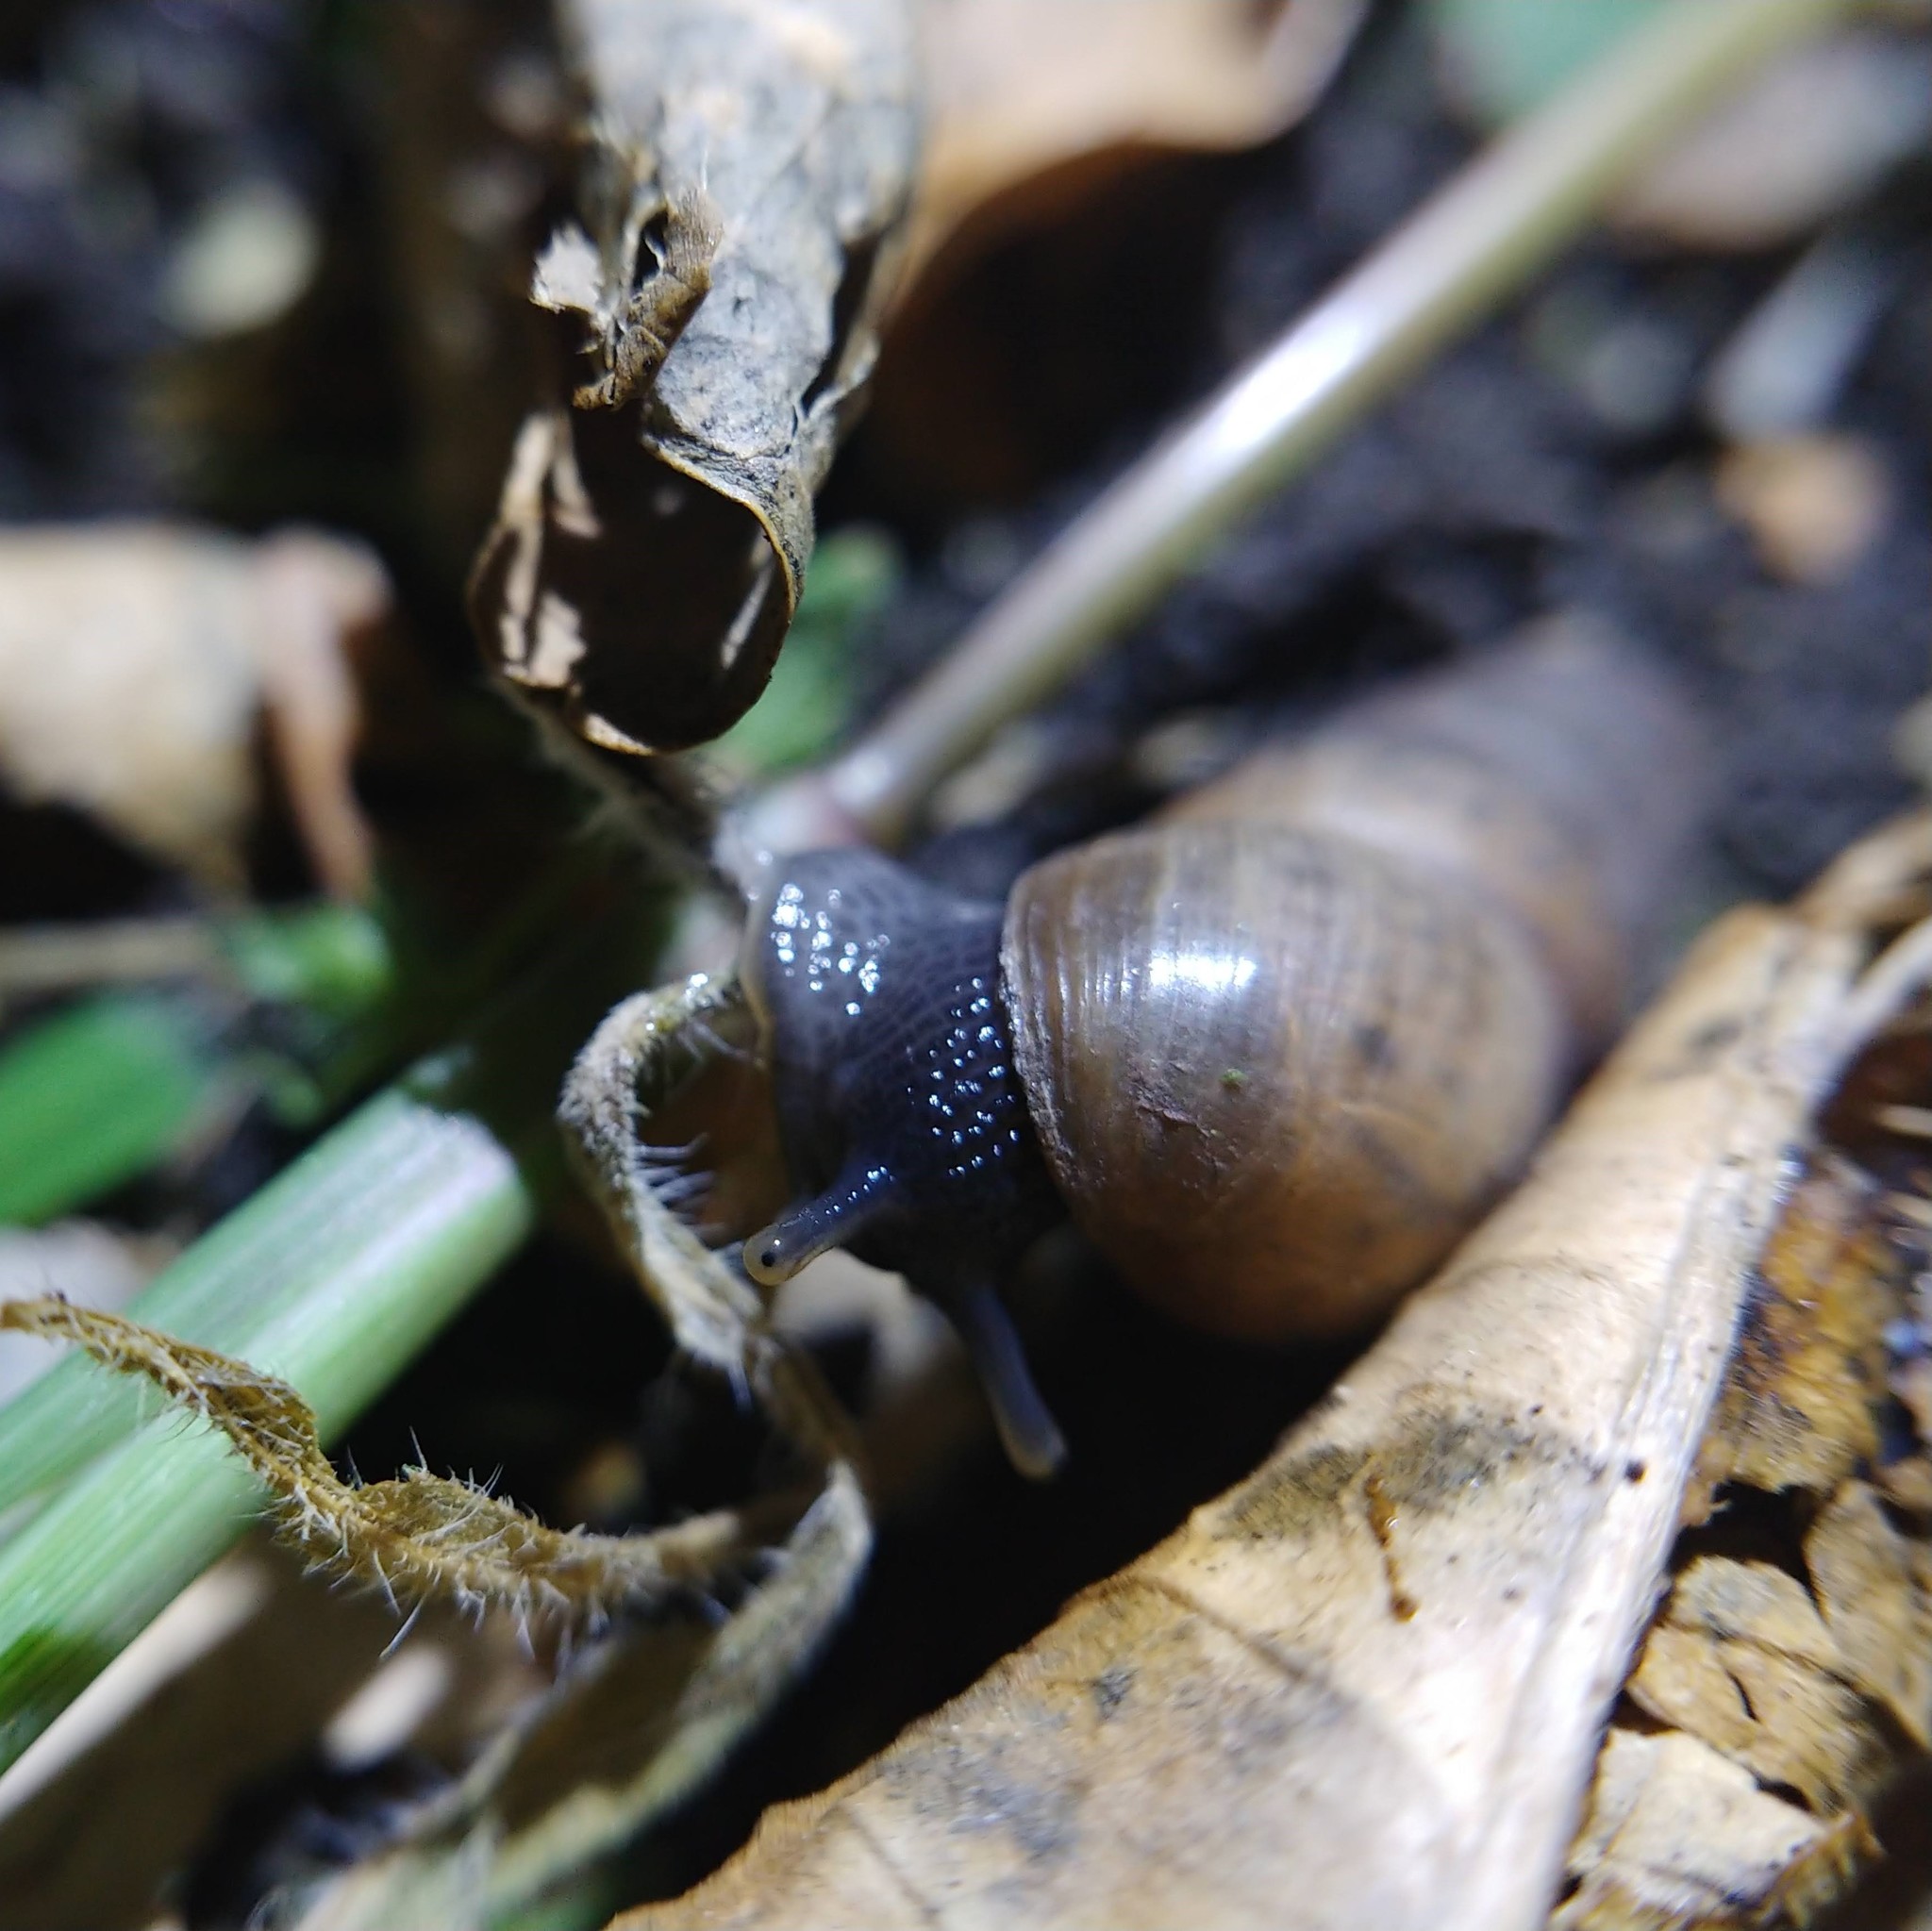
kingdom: Animalia
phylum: Mollusca
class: Gastropoda
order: Stylommatophora
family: Achatinidae
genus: Rumina
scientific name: Rumina decollata
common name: Decollate snail
